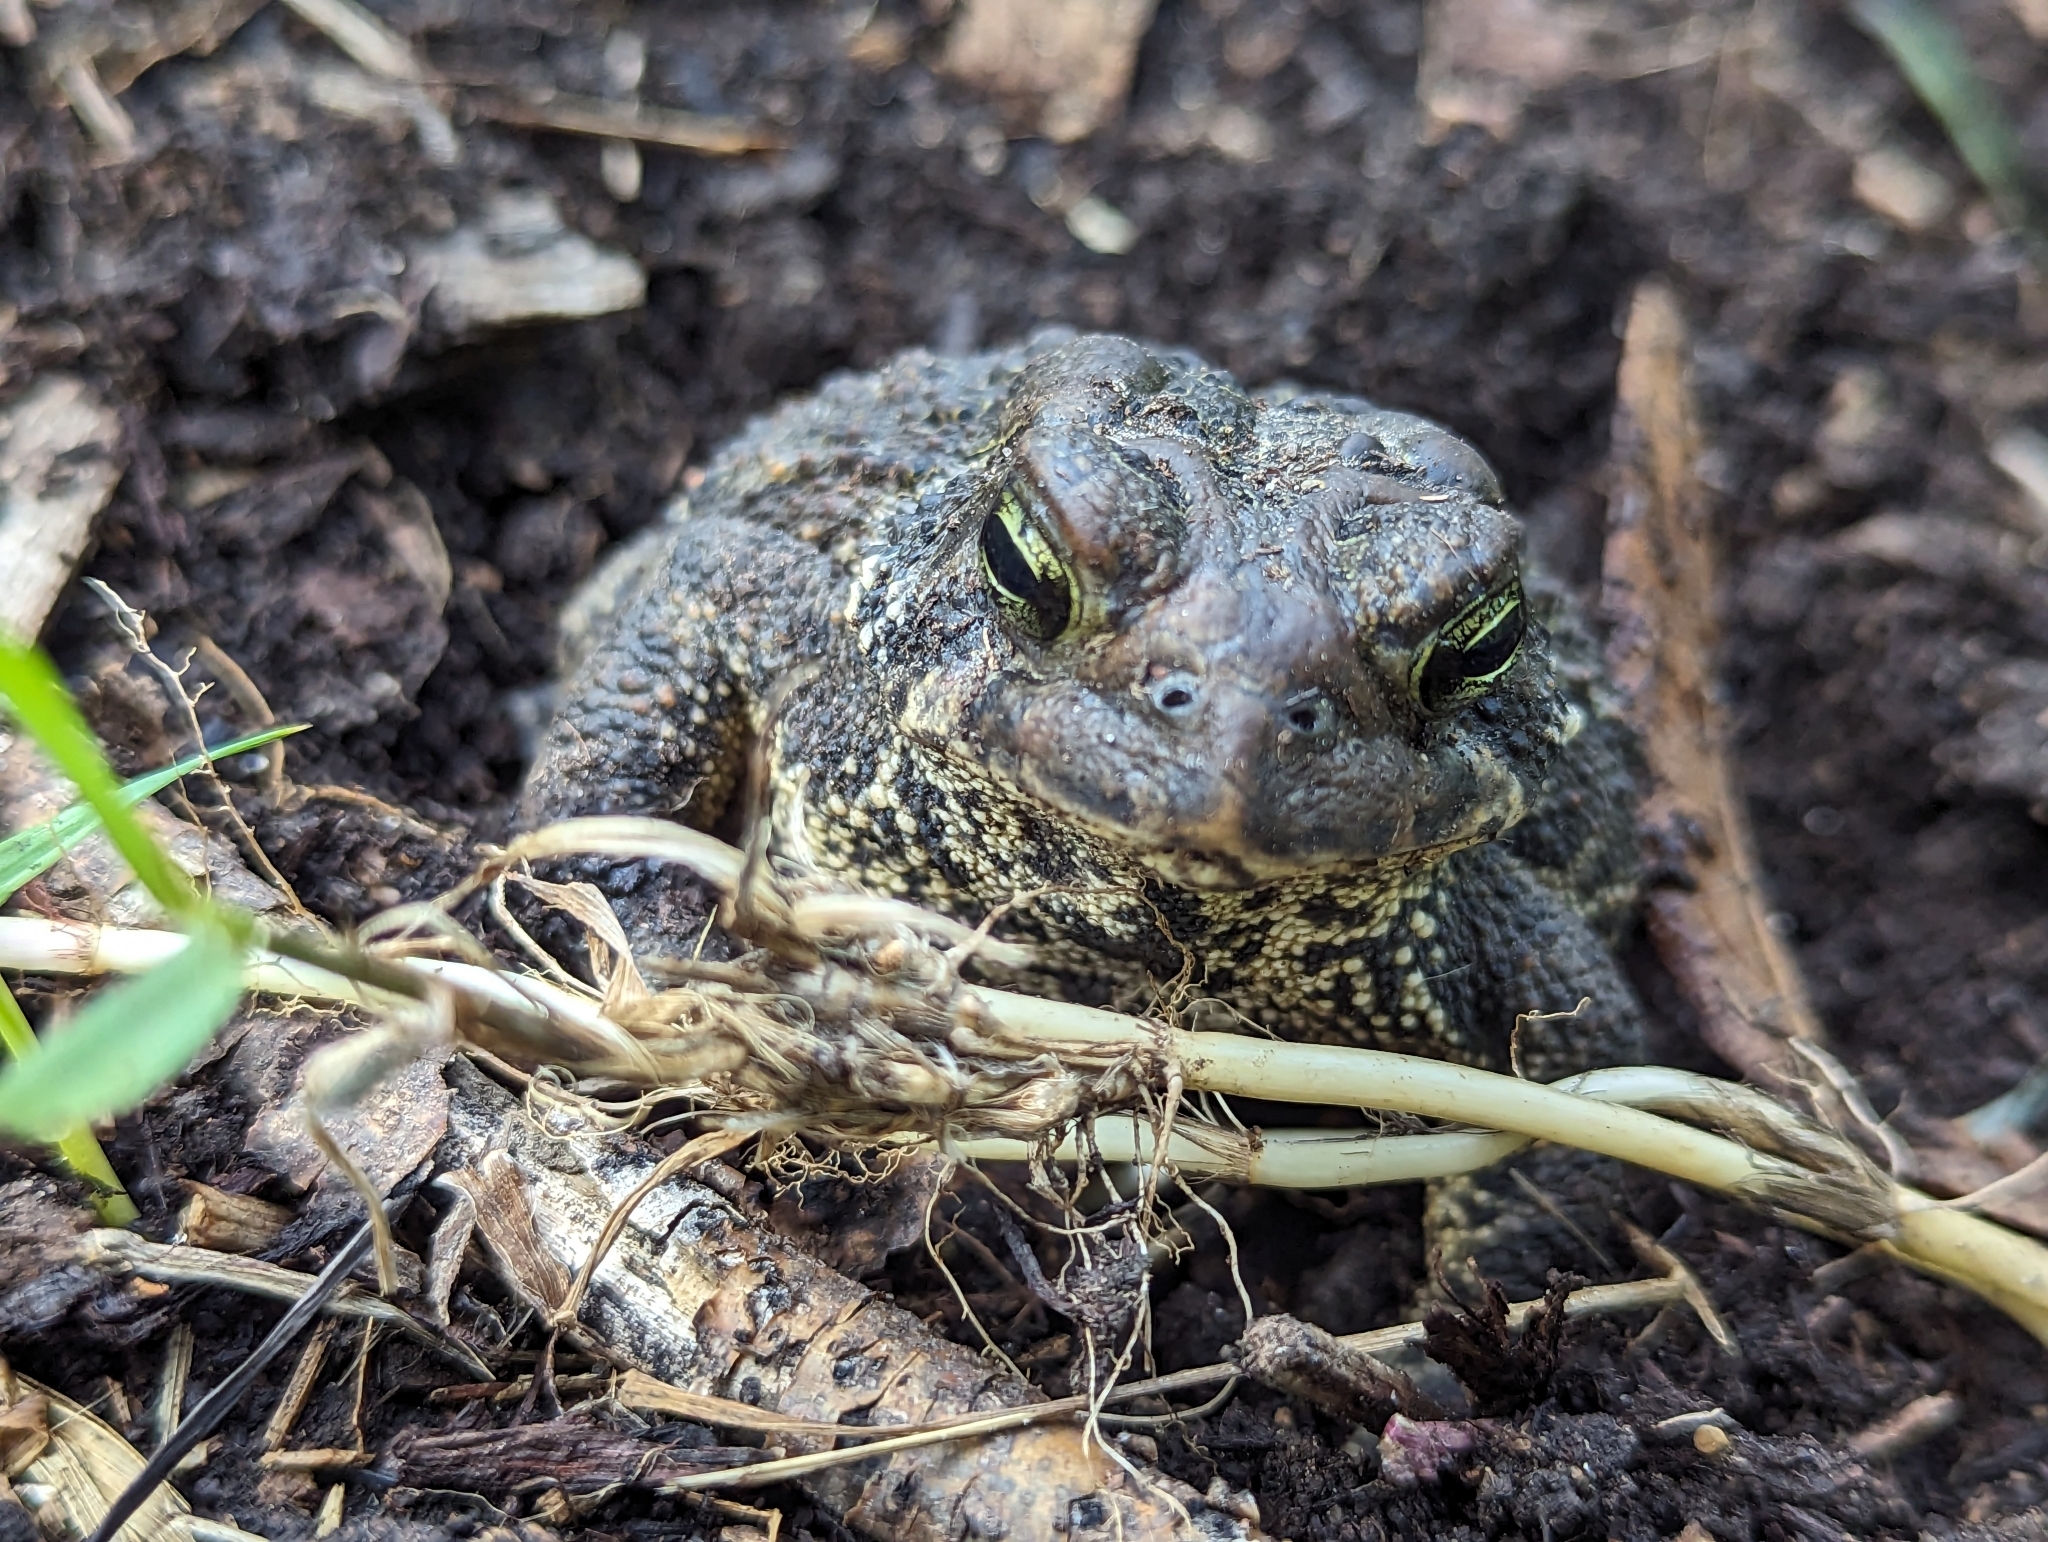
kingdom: Animalia
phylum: Chordata
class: Amphibia
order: Anura
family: Bufonidae
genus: Anaxyrus
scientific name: Anaxyrus americanus
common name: American toad
